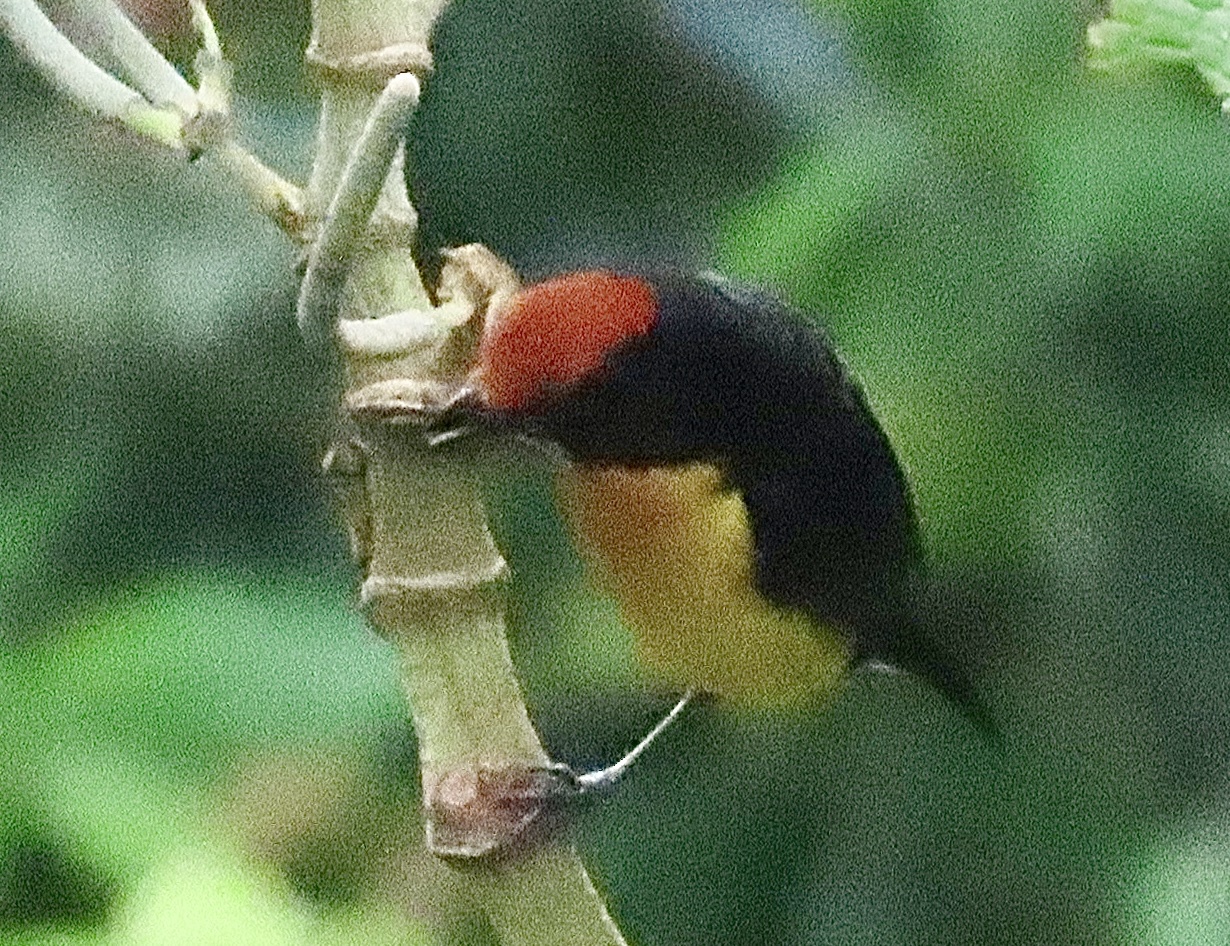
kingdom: Animalia
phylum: Chordata
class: Aves
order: Passeriformes
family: Fringillidae
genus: Euphonia
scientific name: Euphonia anneae
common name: Tawny-capped euphonia
